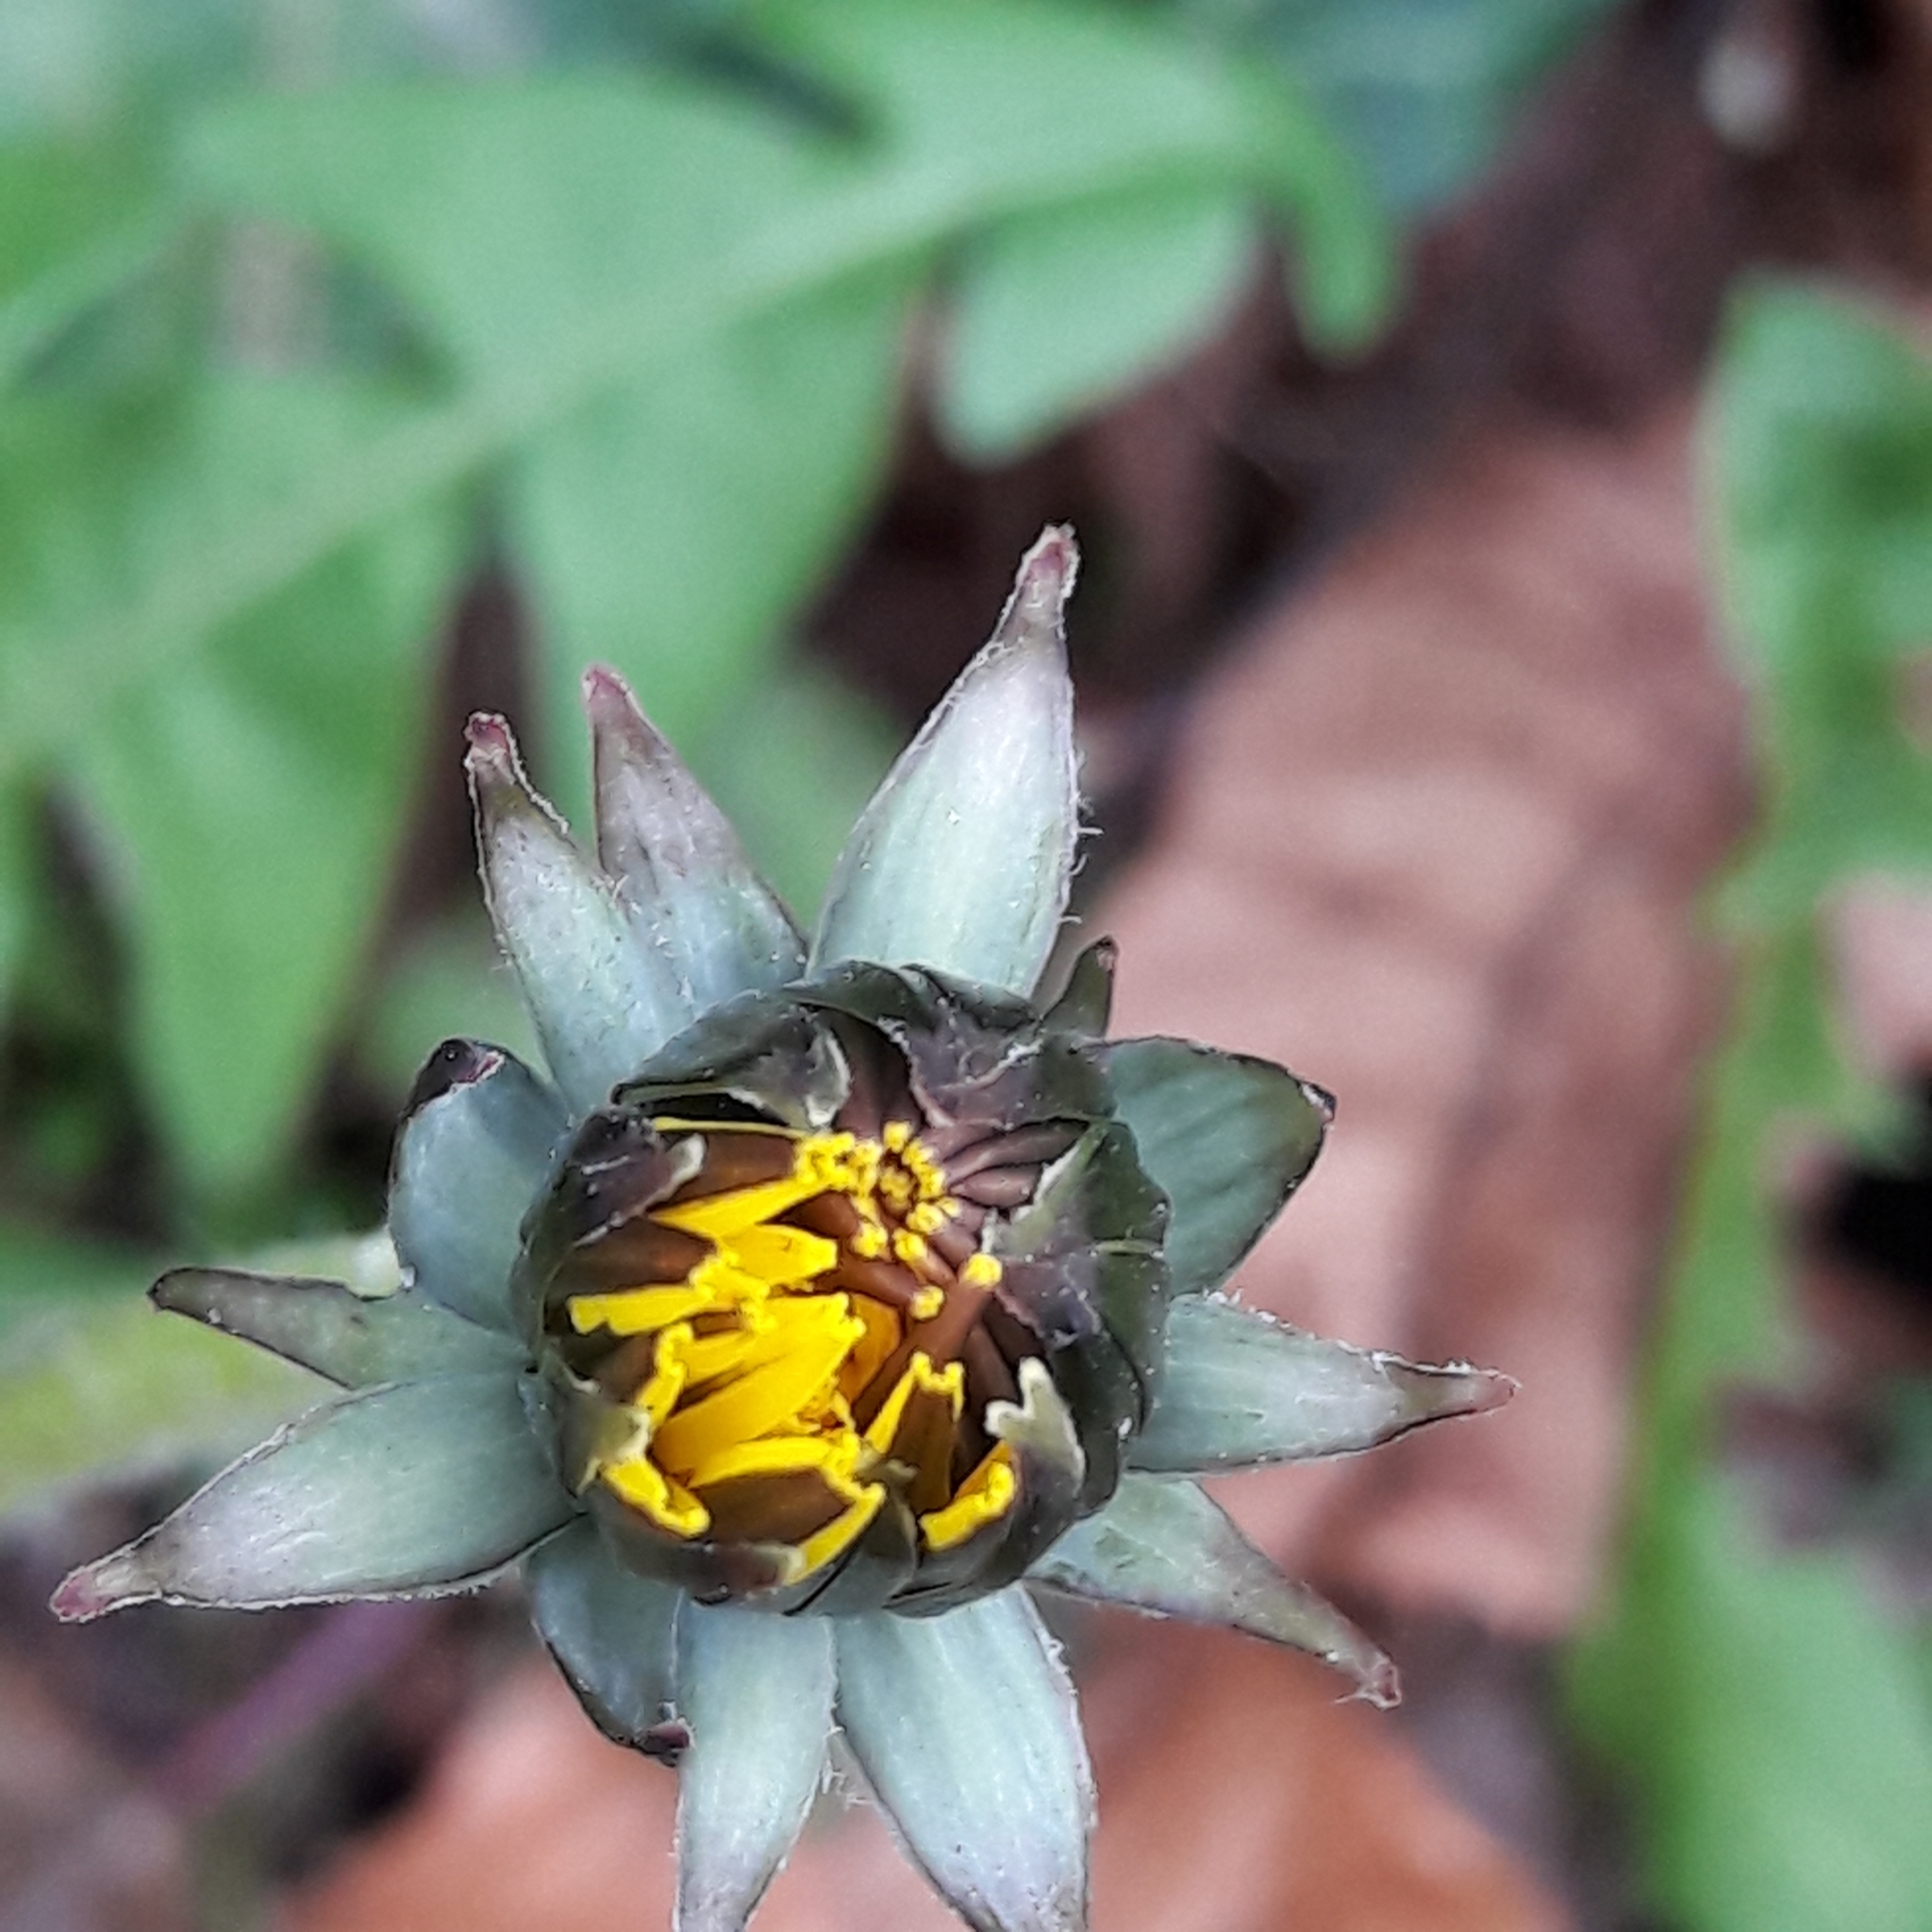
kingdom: Plantae
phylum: Tracheophyta
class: Magnoliopsida
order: Asterales
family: Asteraceae
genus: Taraxacum
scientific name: Taraxacum officinale
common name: Common dandelion
